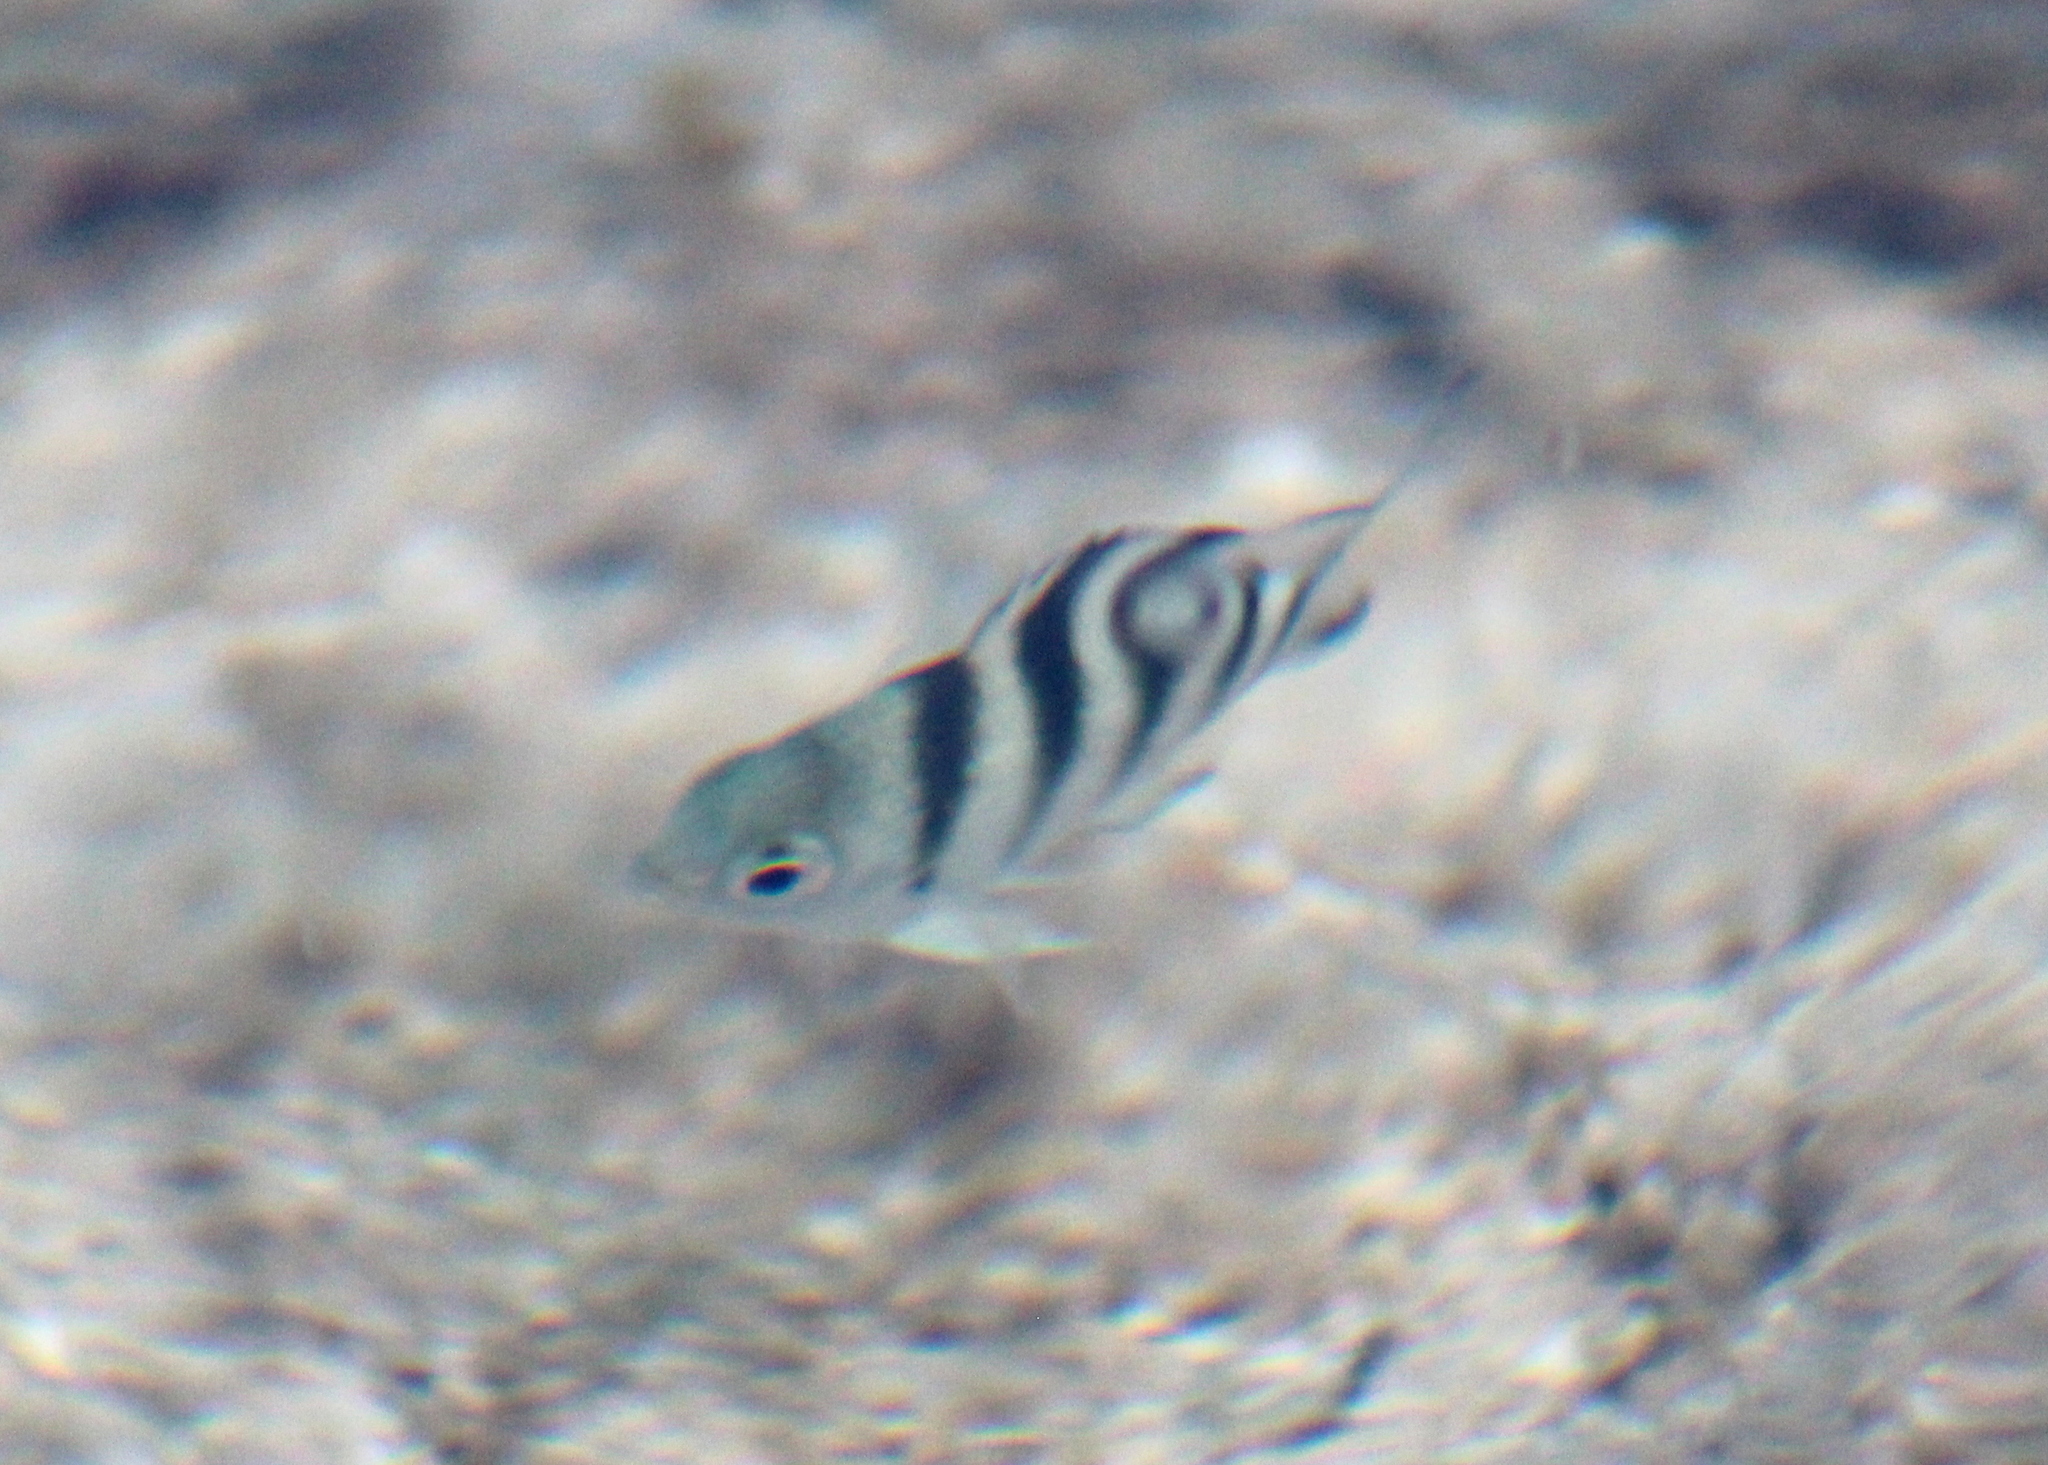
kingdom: Animalia
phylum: Chordata
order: Perciformes
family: Pomacentridae
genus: Abudefduf
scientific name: Abudefduf sexfasciatus
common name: Scissortail sergeant
